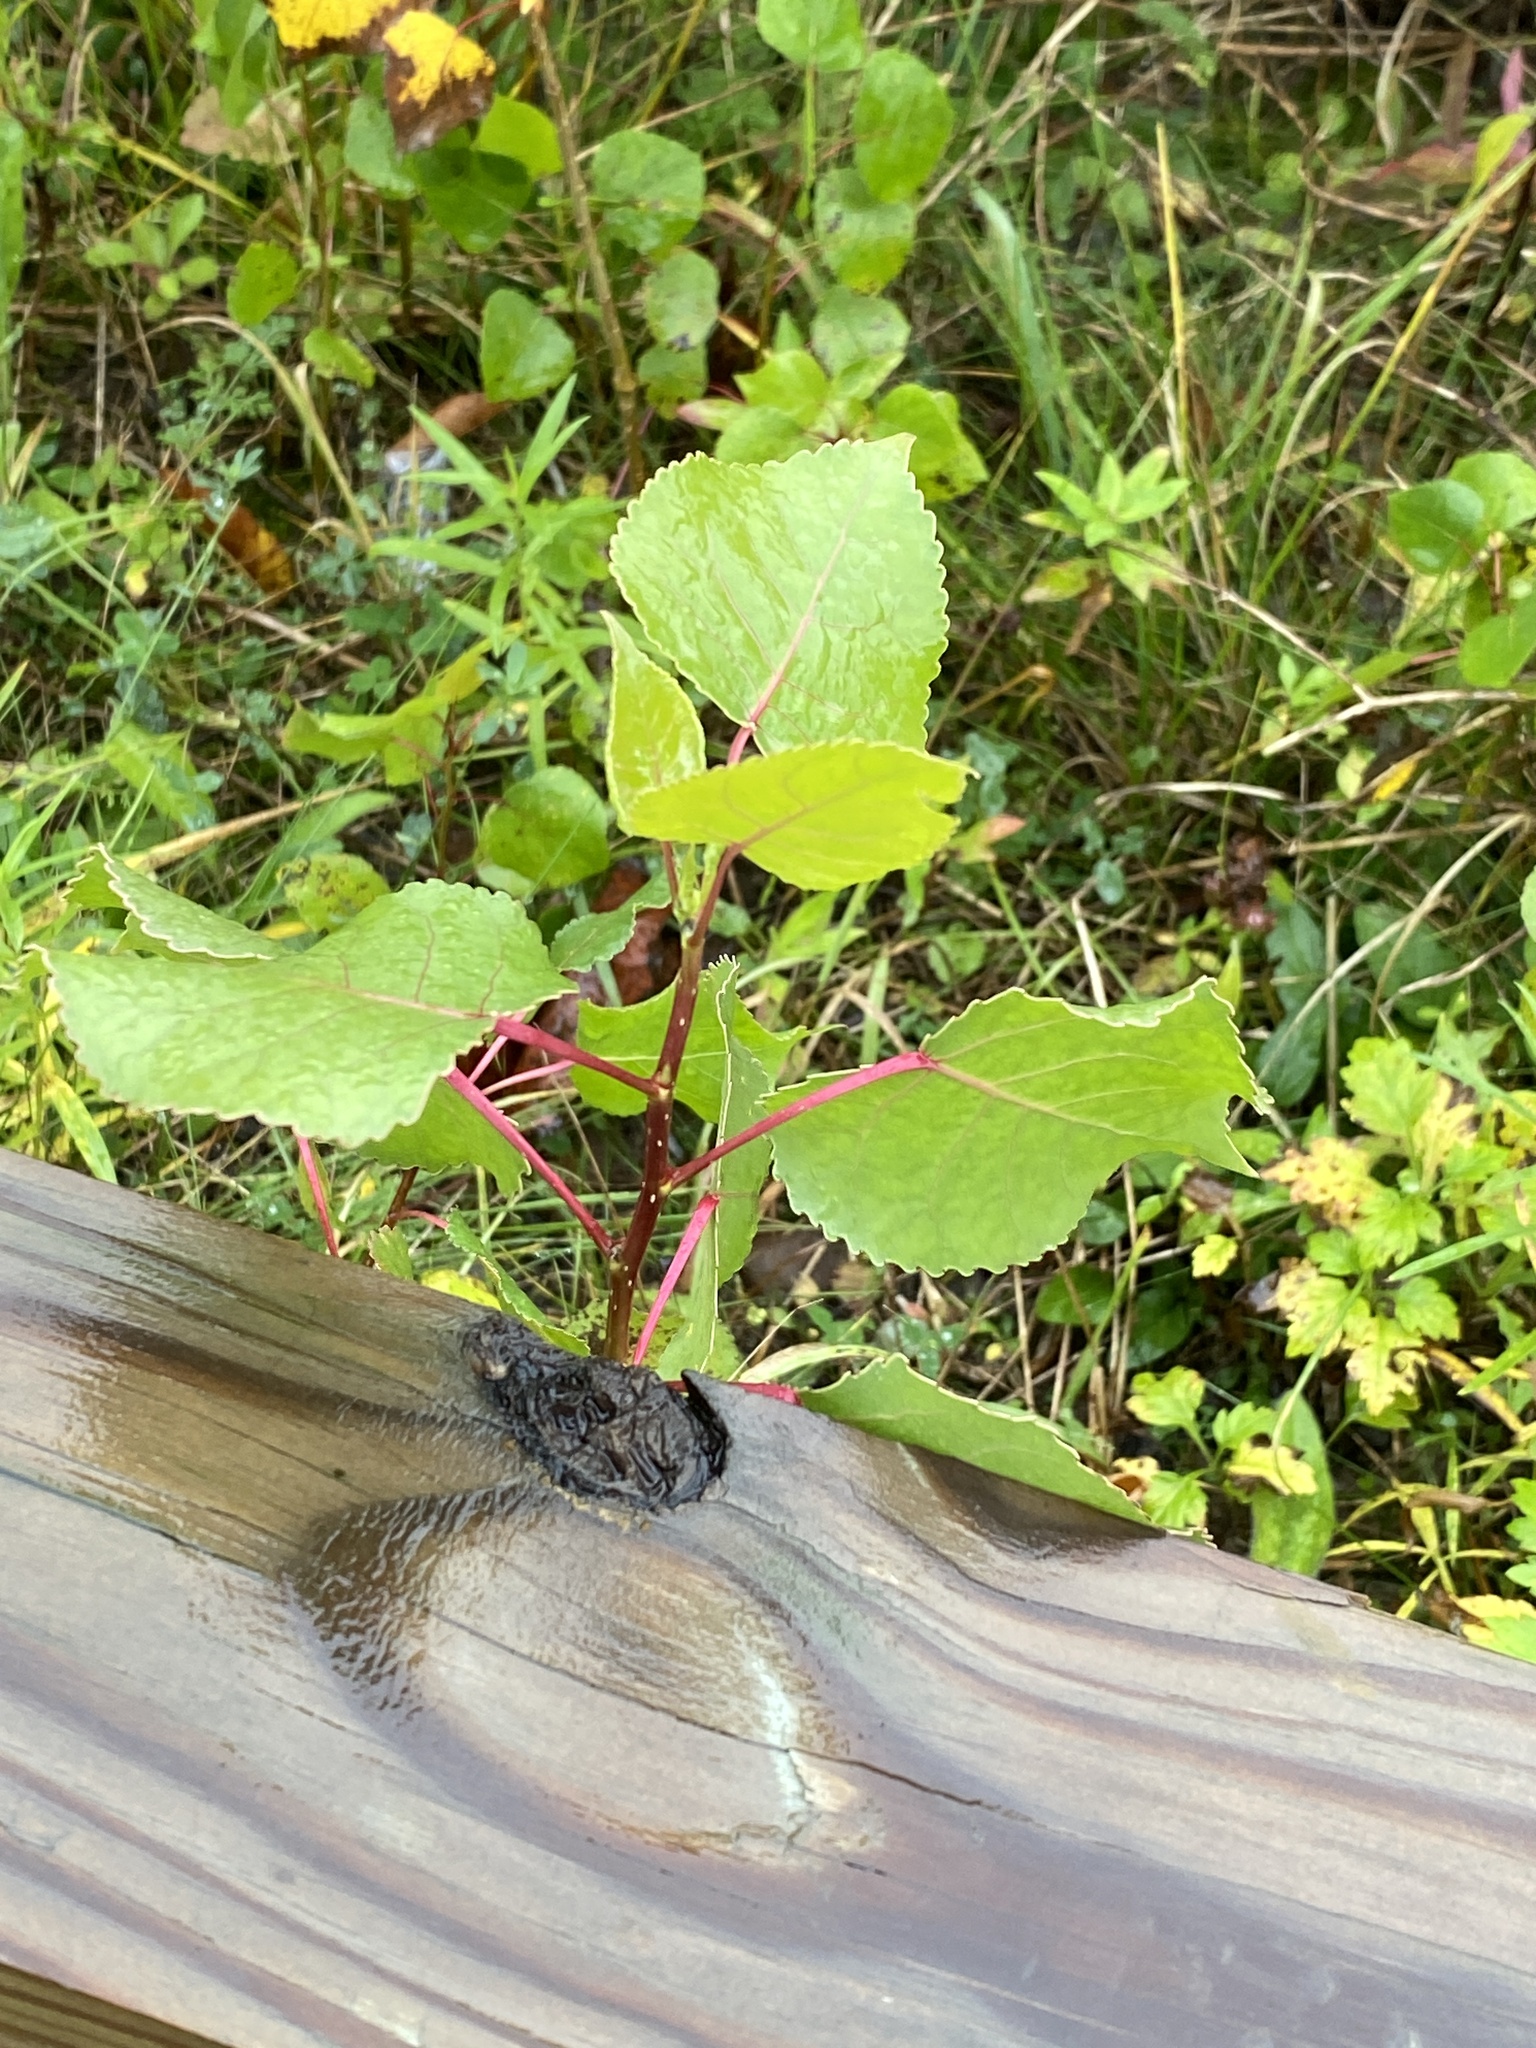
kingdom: Plantae
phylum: Tracheophyta
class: Magnoliopsida
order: Malpighiales
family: Salicaceae
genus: Populus
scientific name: Populus deltoides
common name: Eastern cottonwood
